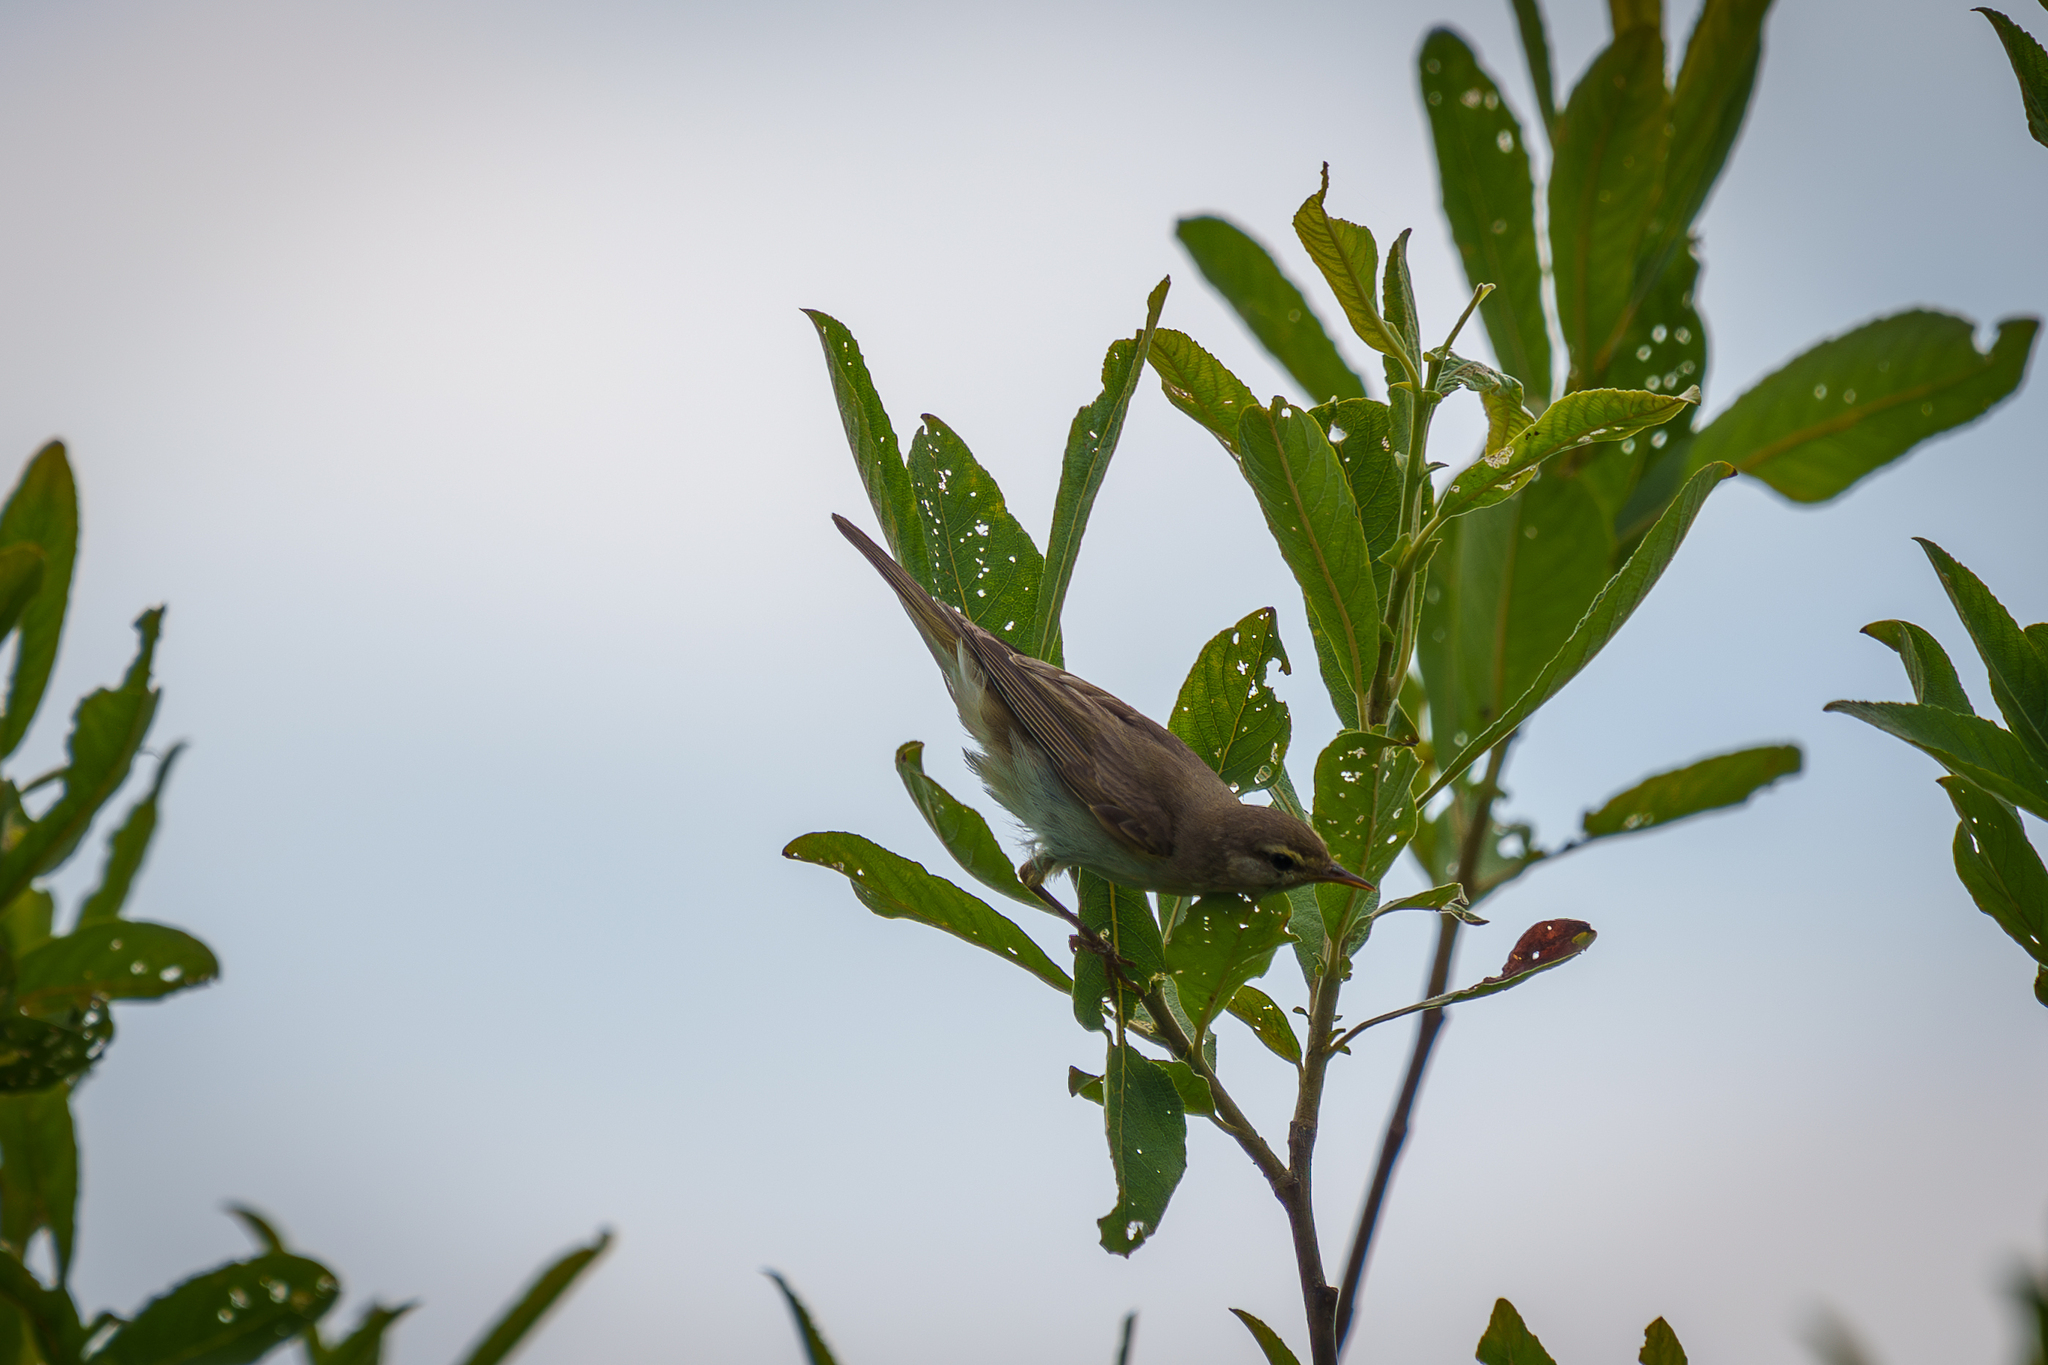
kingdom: Animalia
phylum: Chordata
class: Aves
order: Passeriformes
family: Phylloscopidae
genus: Phylloscopus
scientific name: Phylloscopus trochilus
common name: Willow warbler
